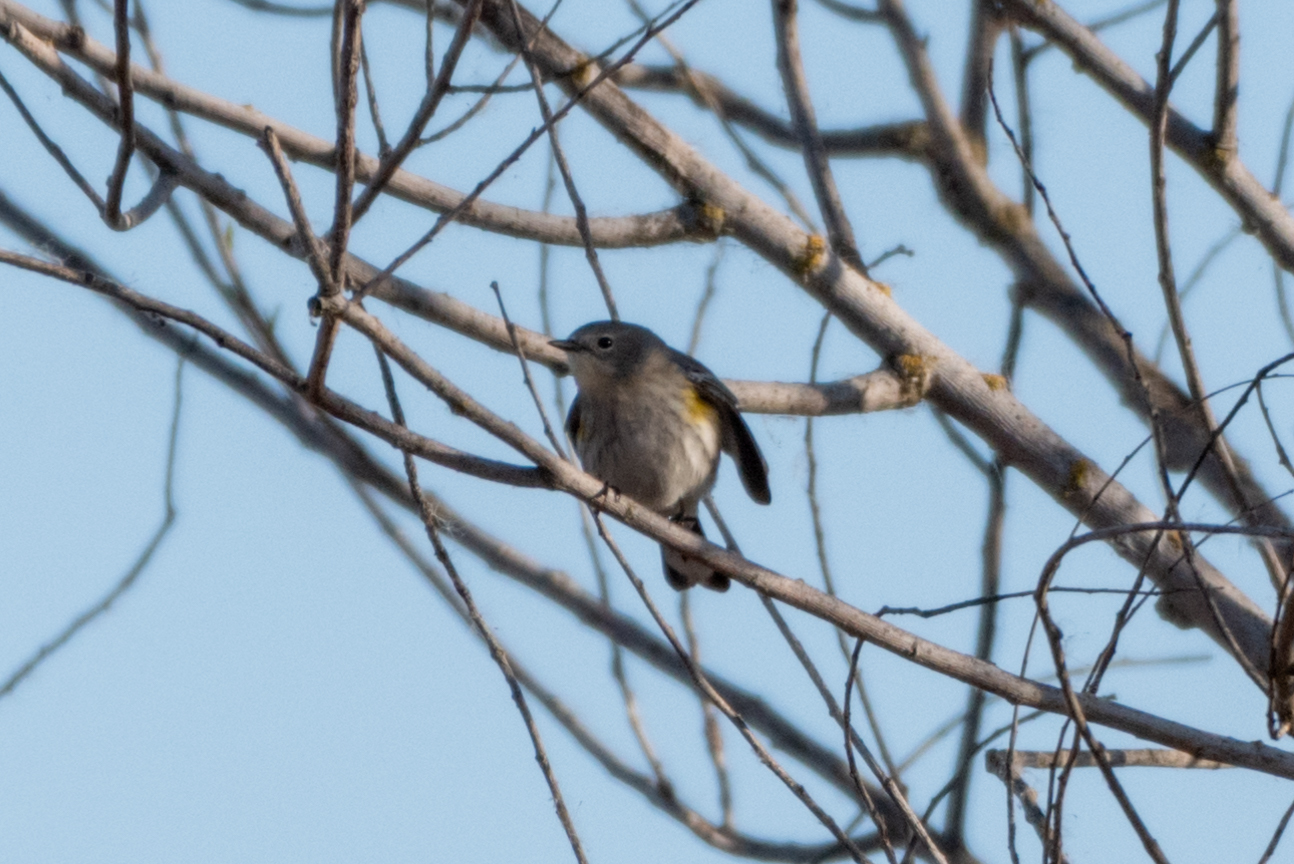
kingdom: Animalia
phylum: Chordata
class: Aves
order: Passeriformes
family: Parulidae
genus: Setophaga
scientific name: Setophaga coronata
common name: Myrtle warbler
